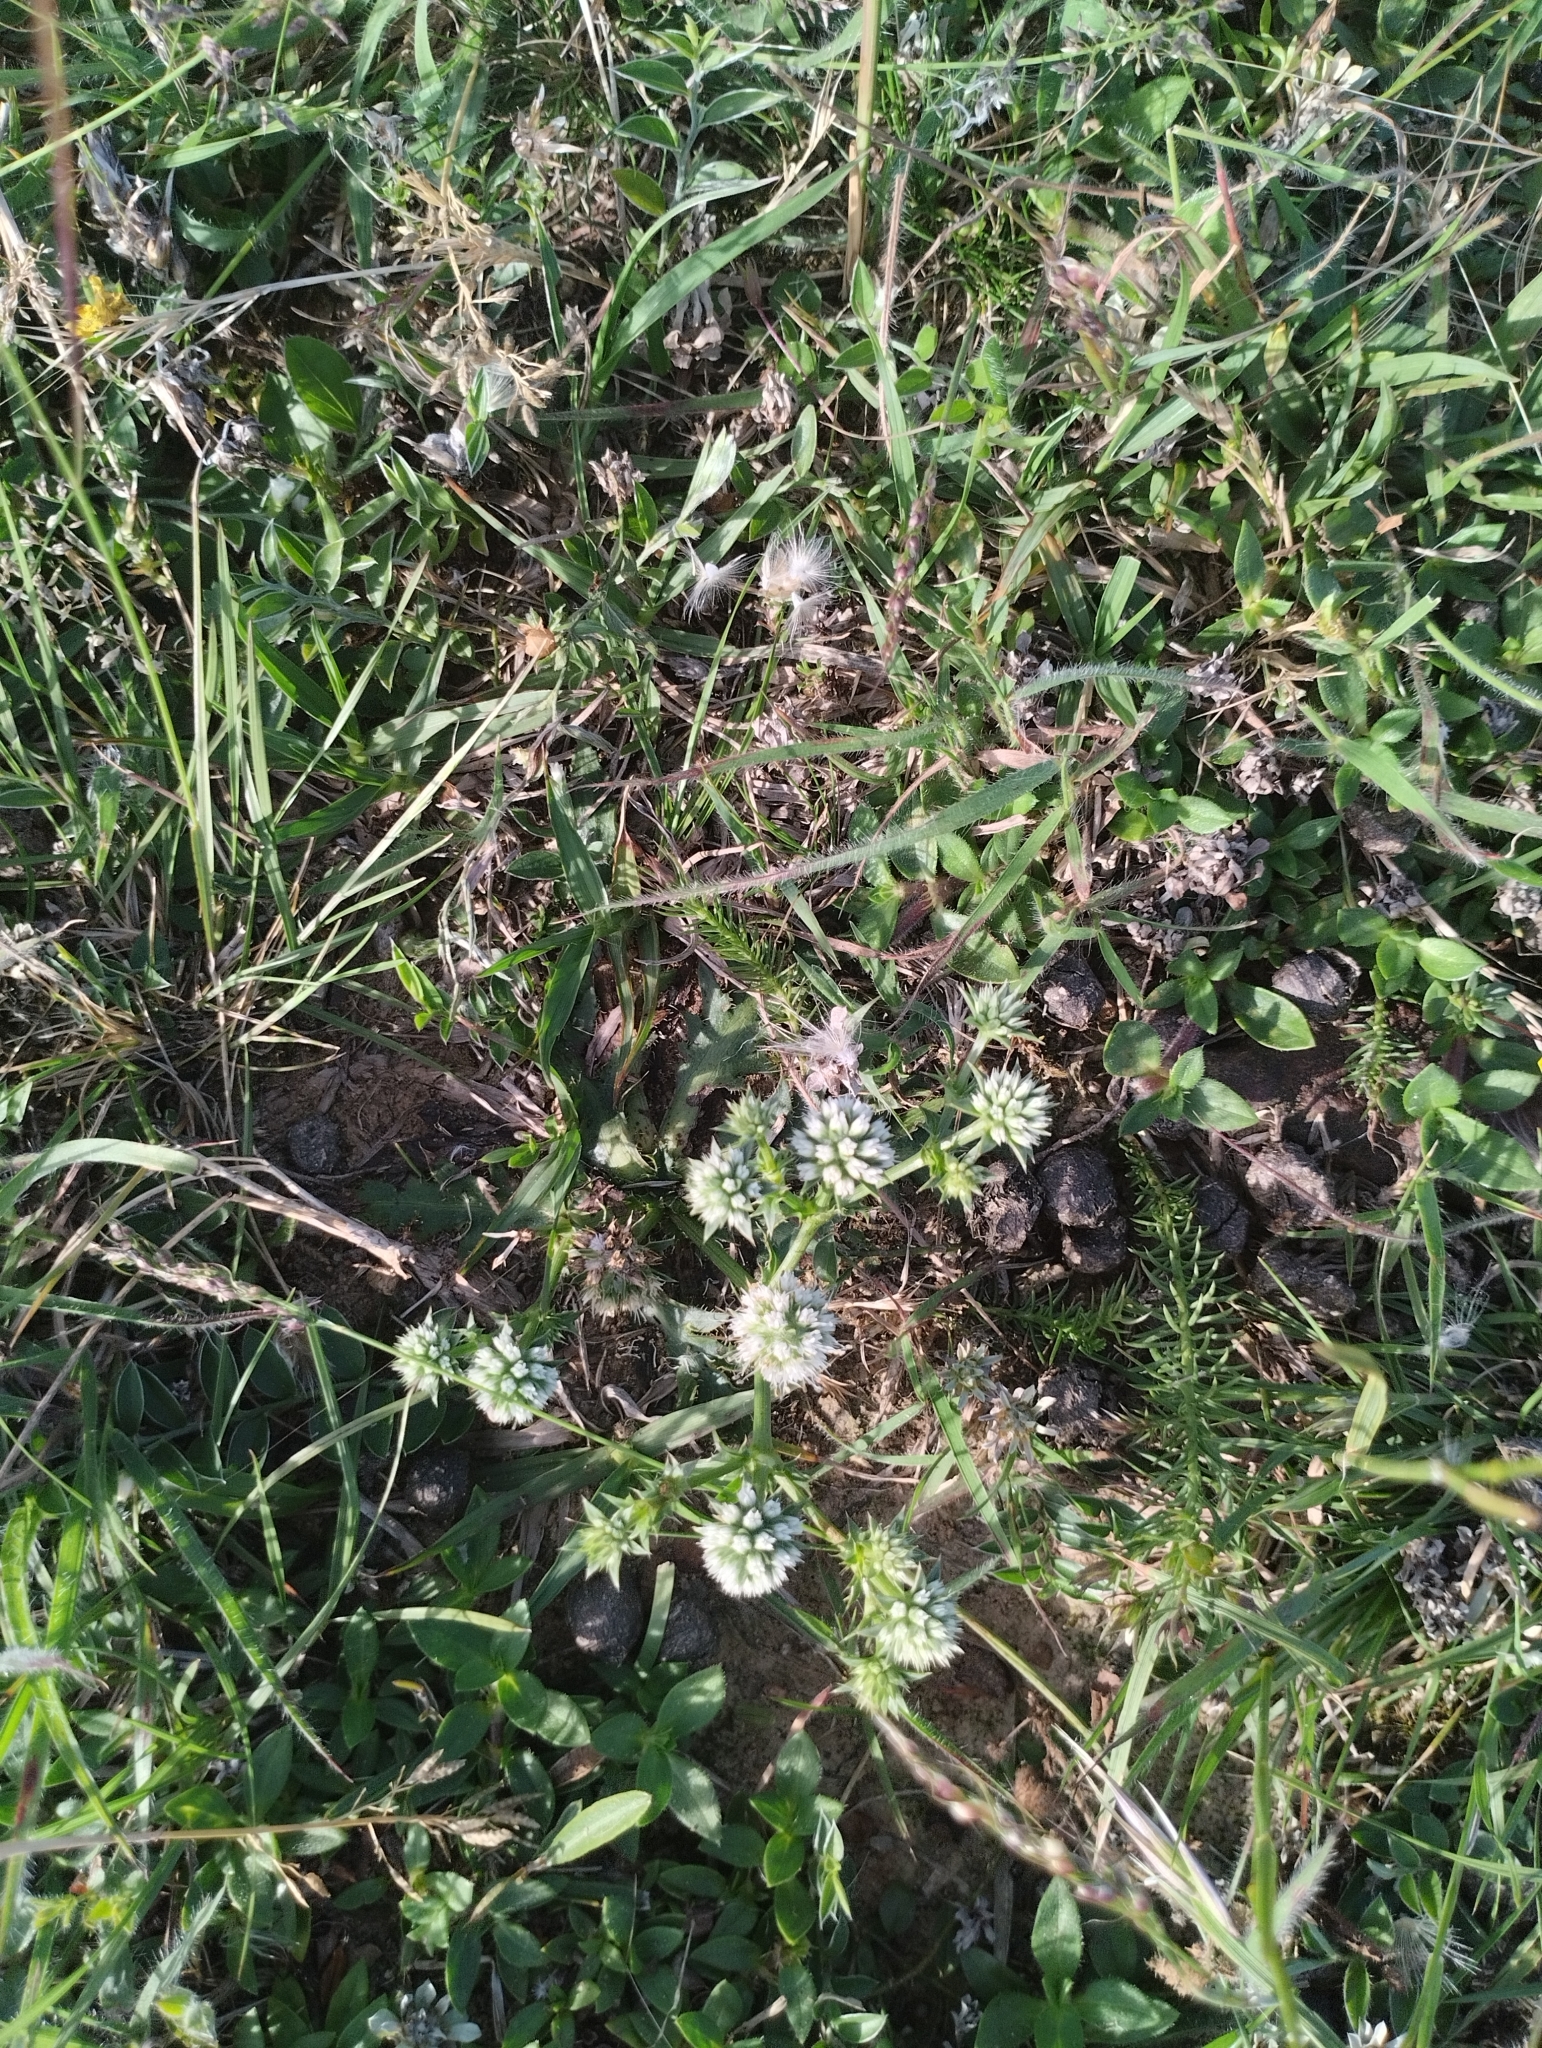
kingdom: Plantae
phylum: Tracheophyta
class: Magnoliopsida
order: Apiales
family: Apiaceae
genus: Eryngium
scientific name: Eryngium nudicaule
